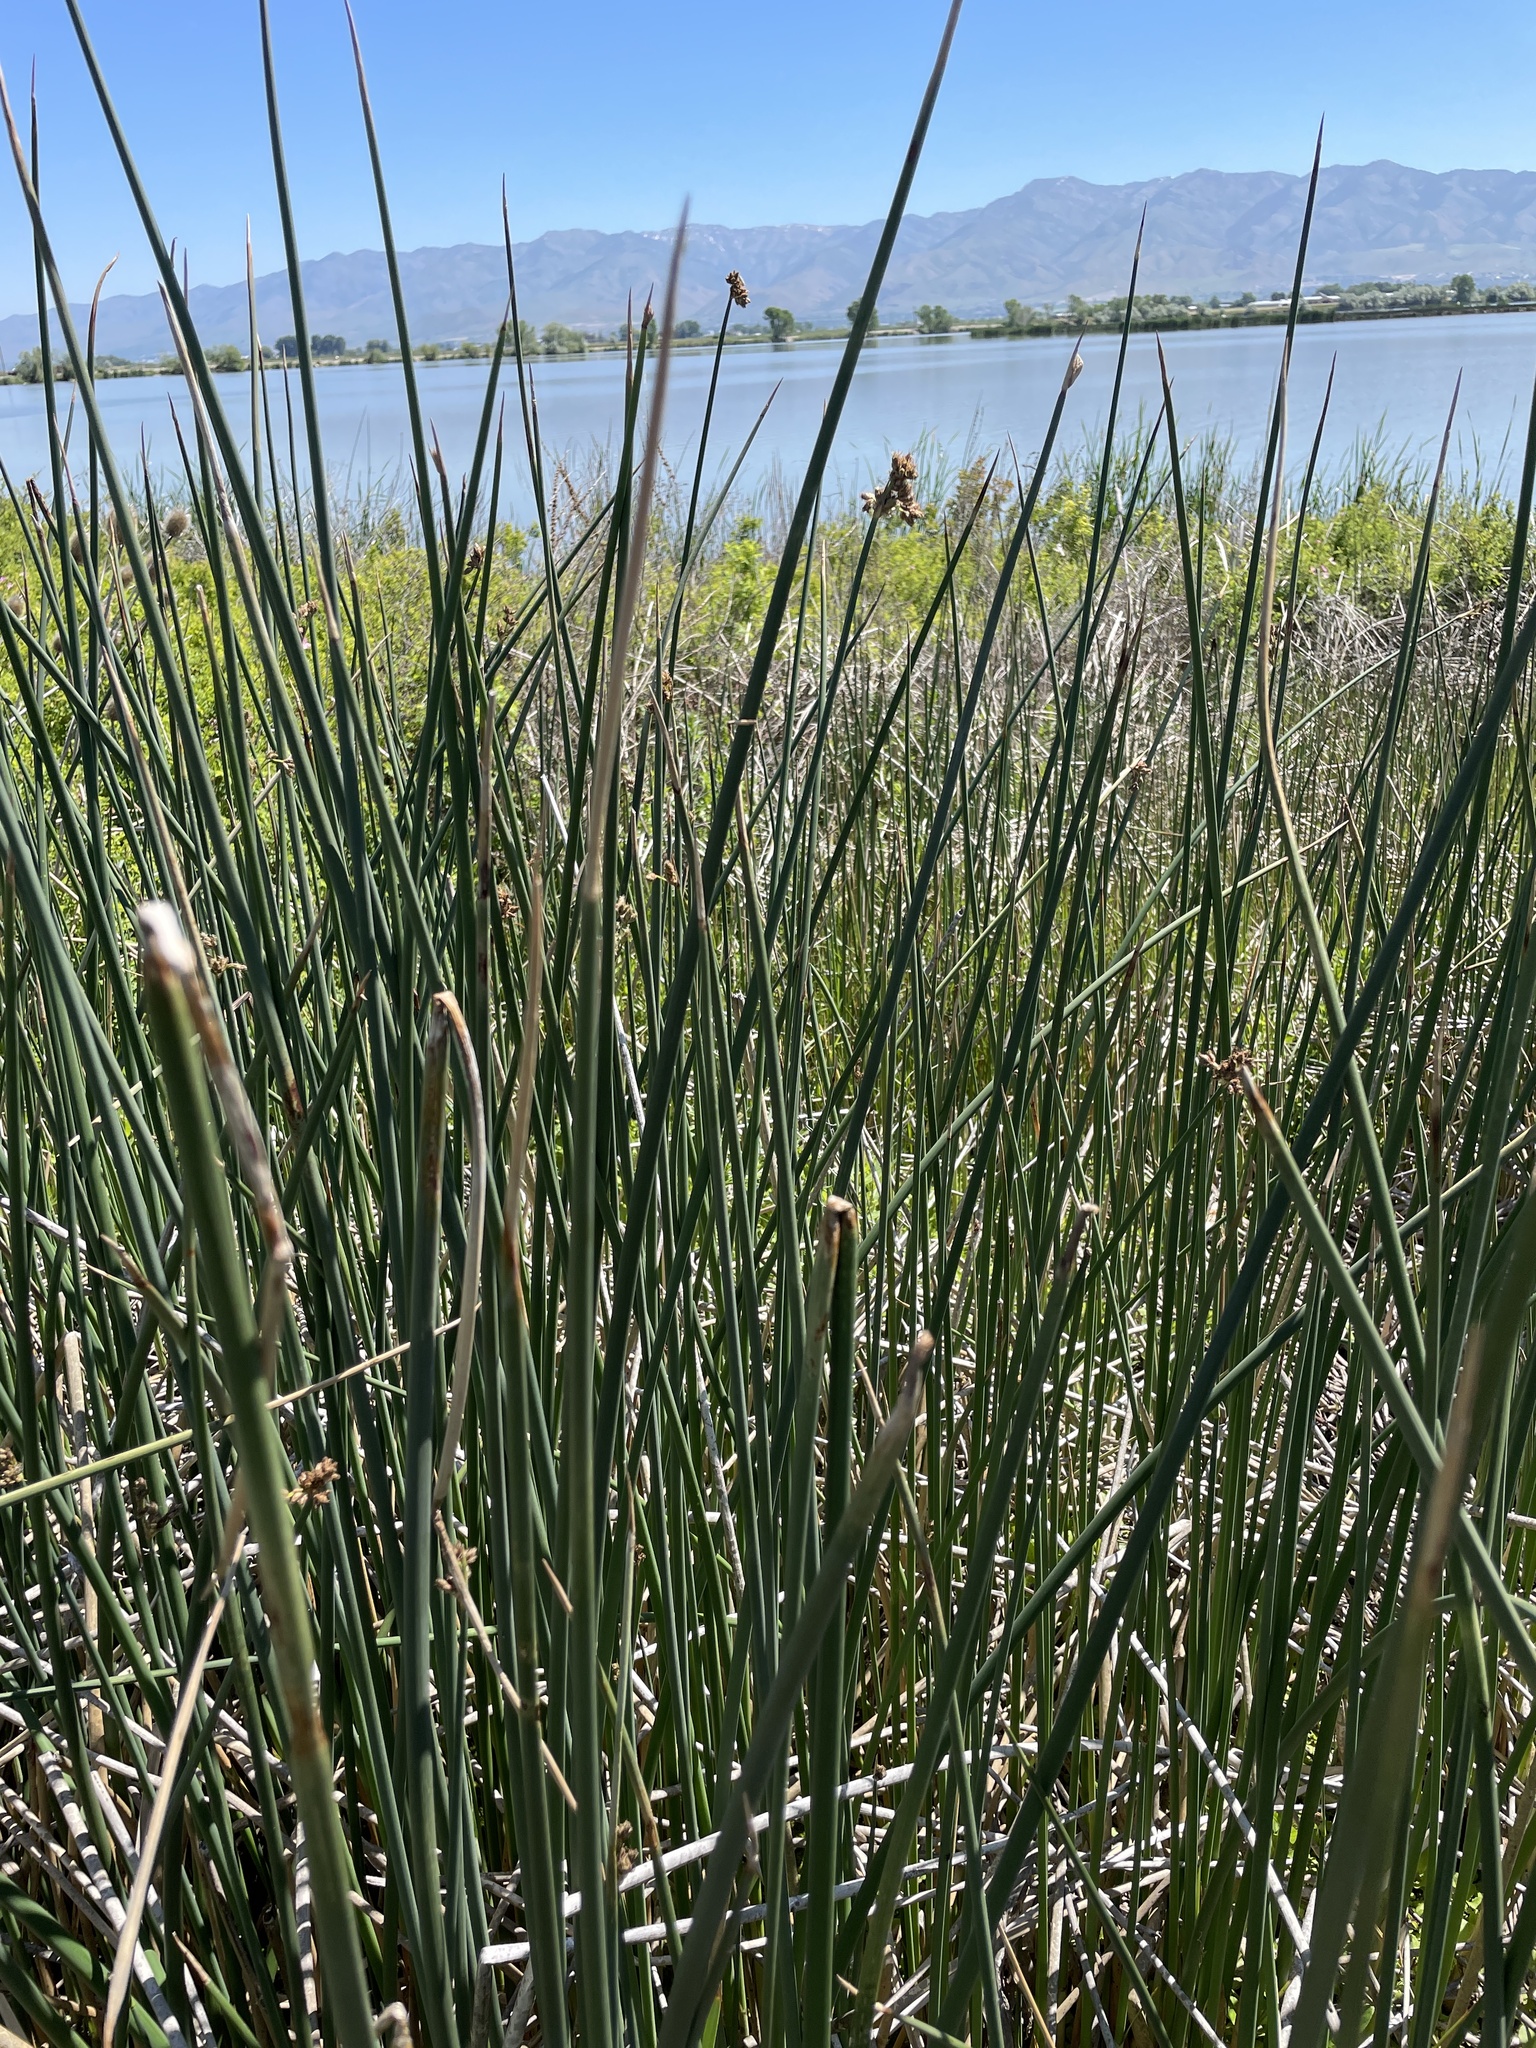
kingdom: Plantae
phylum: Tracheophyta
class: Liliopsida
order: Poales
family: Cyperaceae
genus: Schoenoplectus
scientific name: Schoenoplectus acutus
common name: Hardstem bulrush
